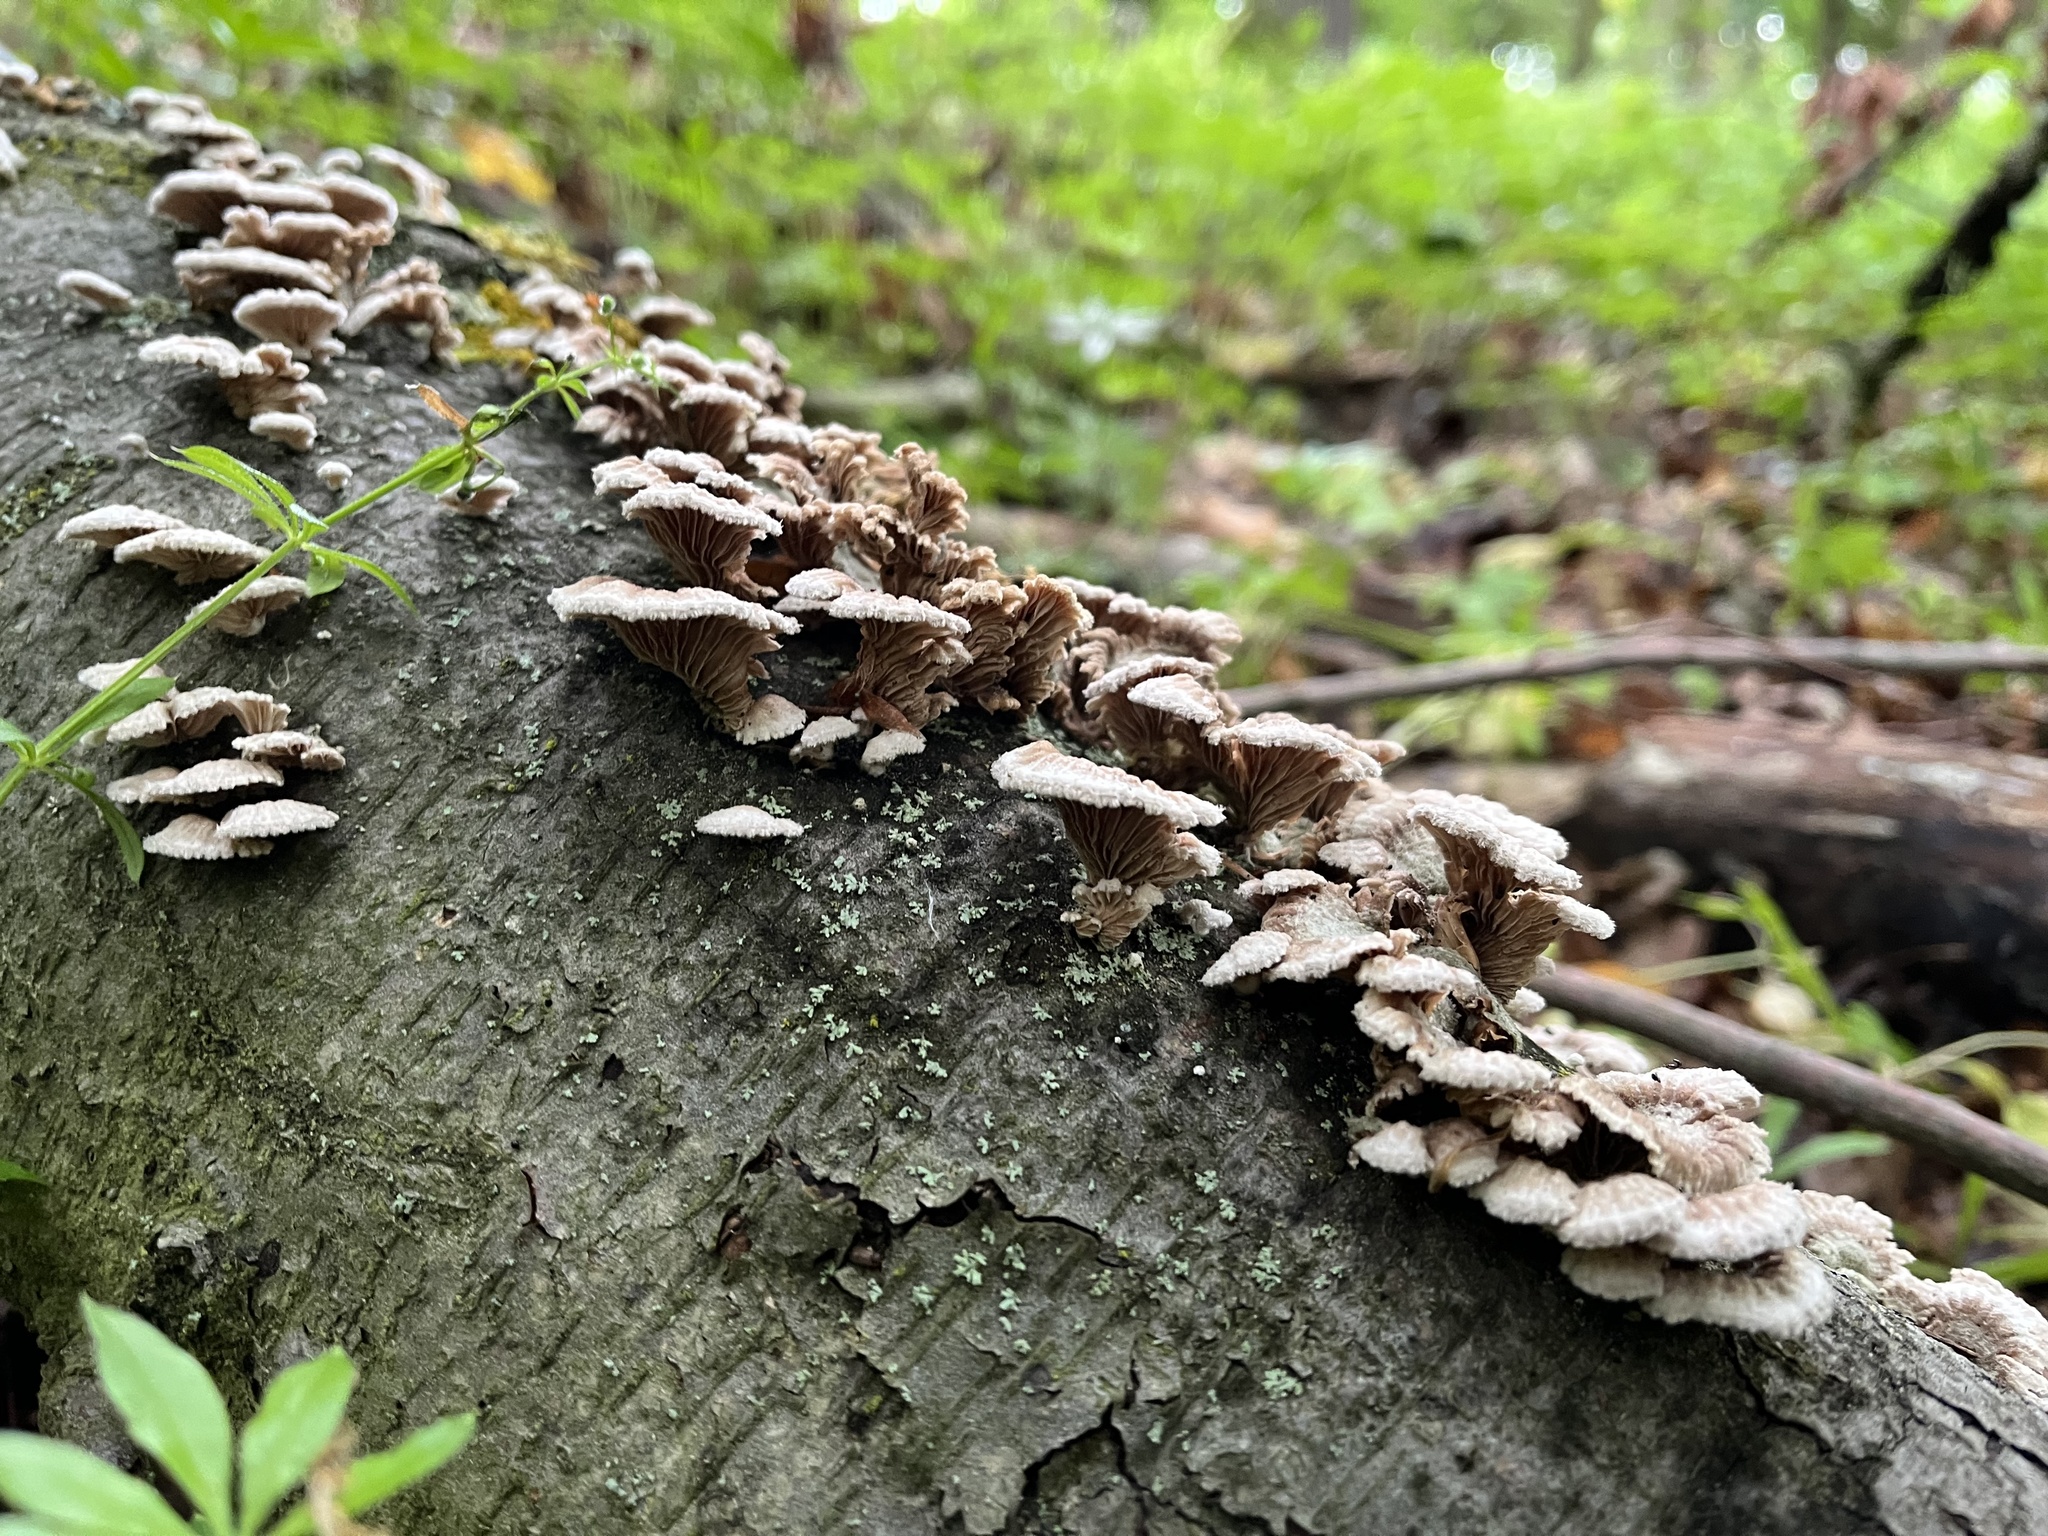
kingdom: Fungi
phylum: Basidiomycota
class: Agaricomycetes
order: Agaricales
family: Schizophyllaceae
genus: Schizophyllum
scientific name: Schizophyllum commune
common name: Common porecrust
